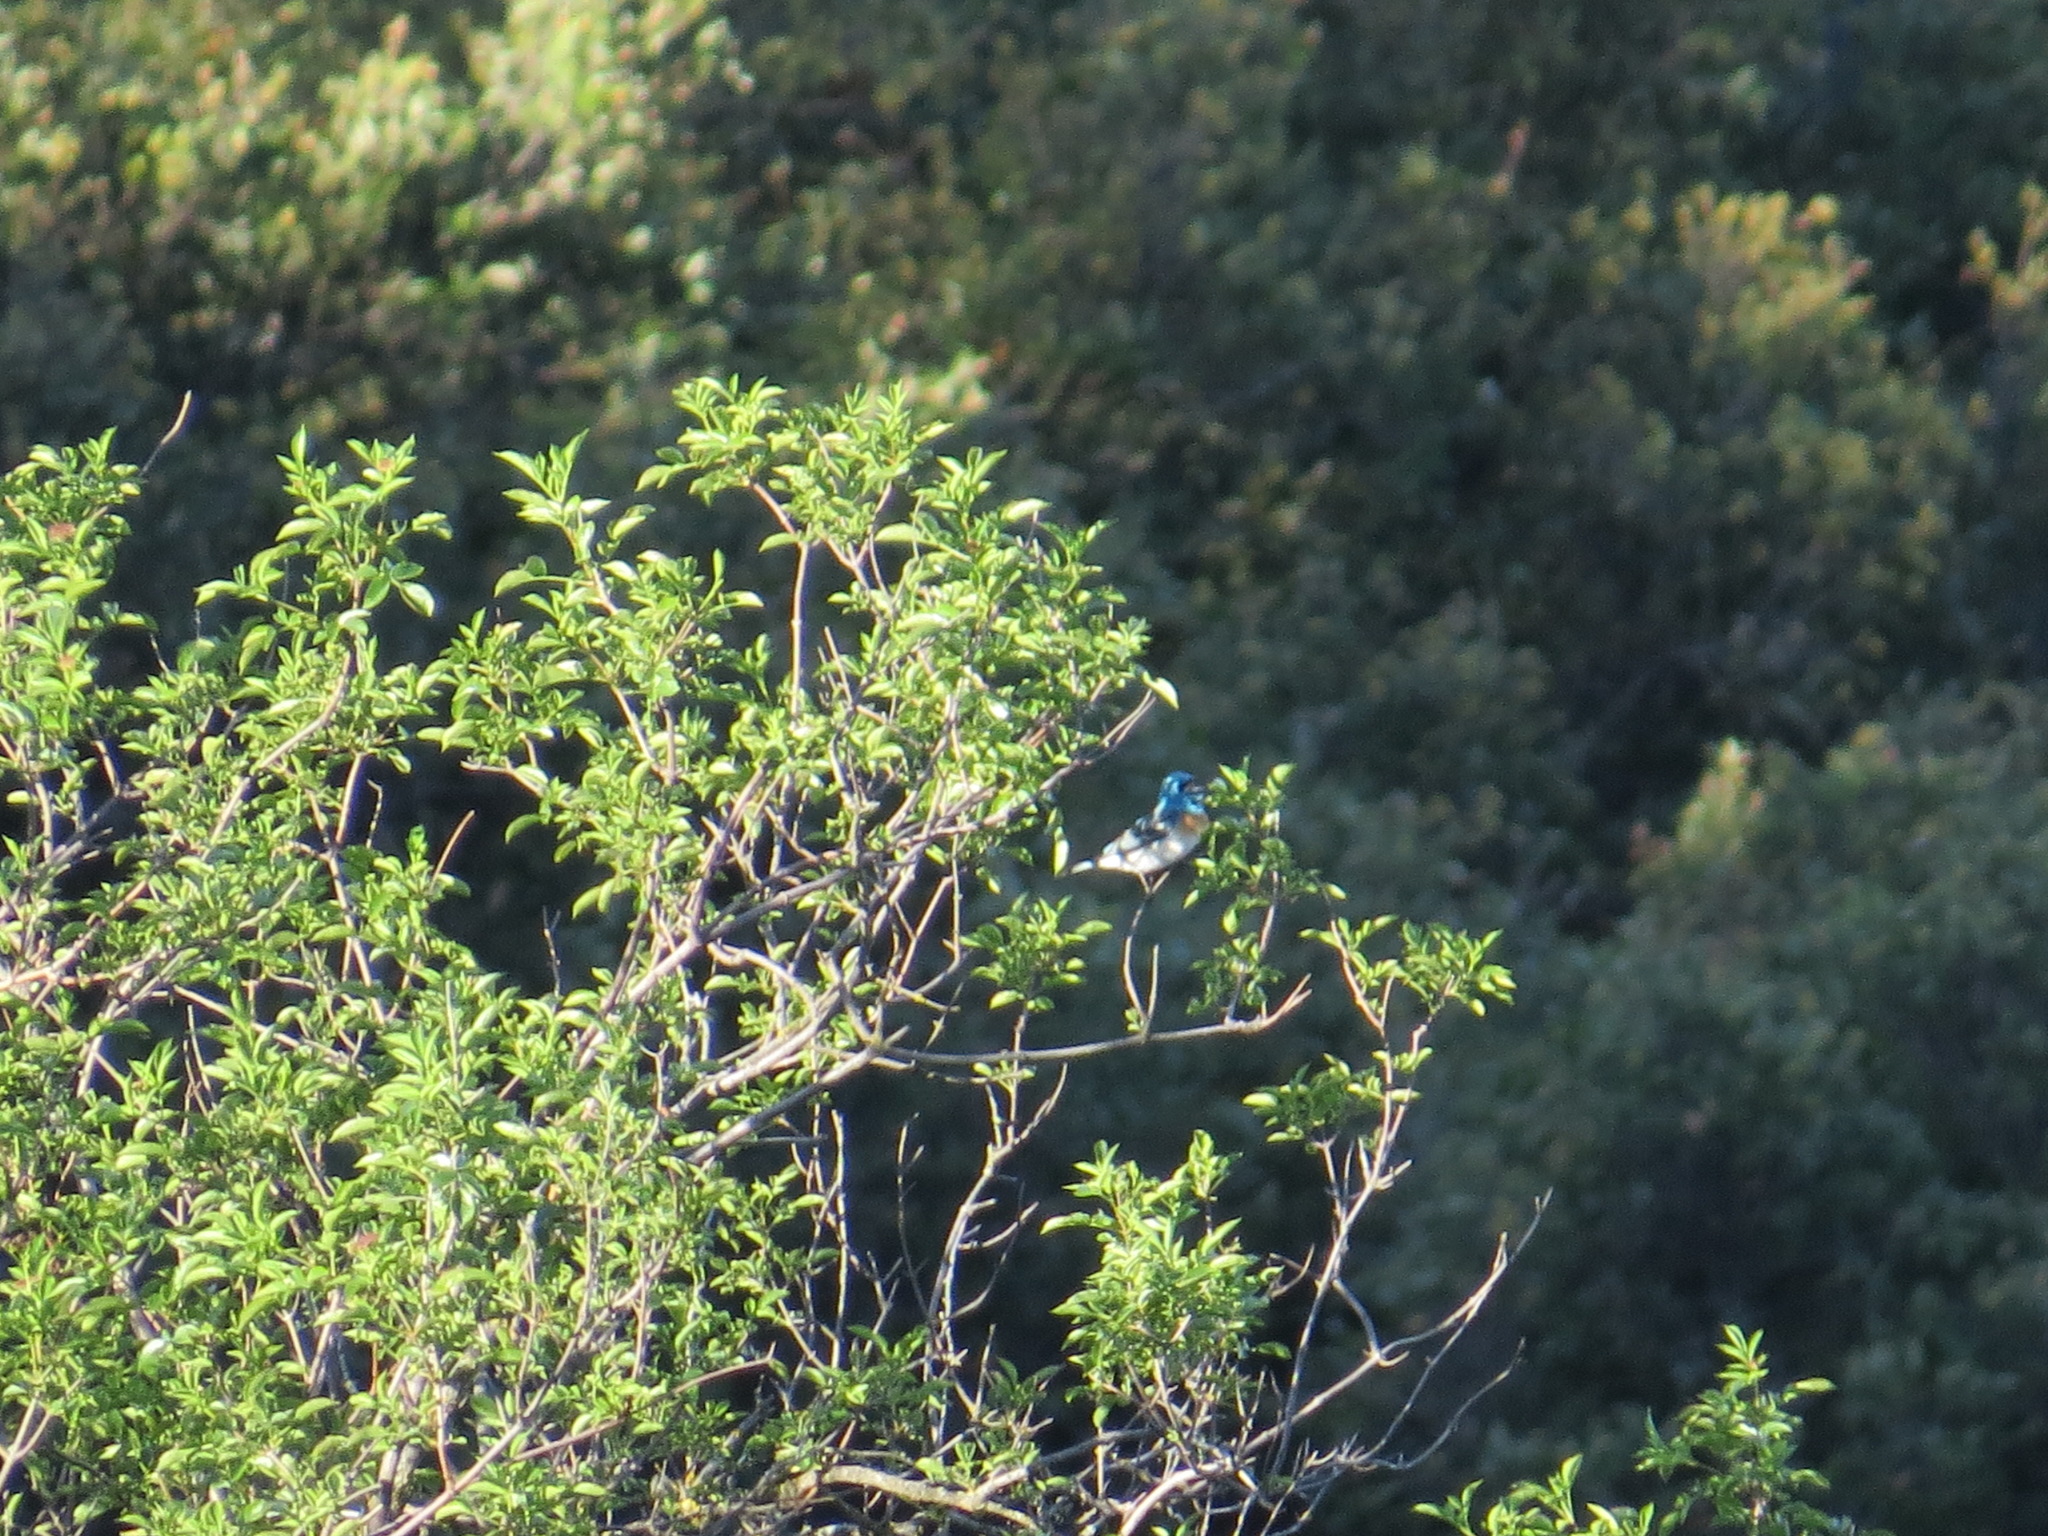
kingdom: Animalia
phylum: Chordata
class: Aves
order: Passeriformes
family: Cardinalidae
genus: Passerina
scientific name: Passerina amoena
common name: Lazuli bunting
